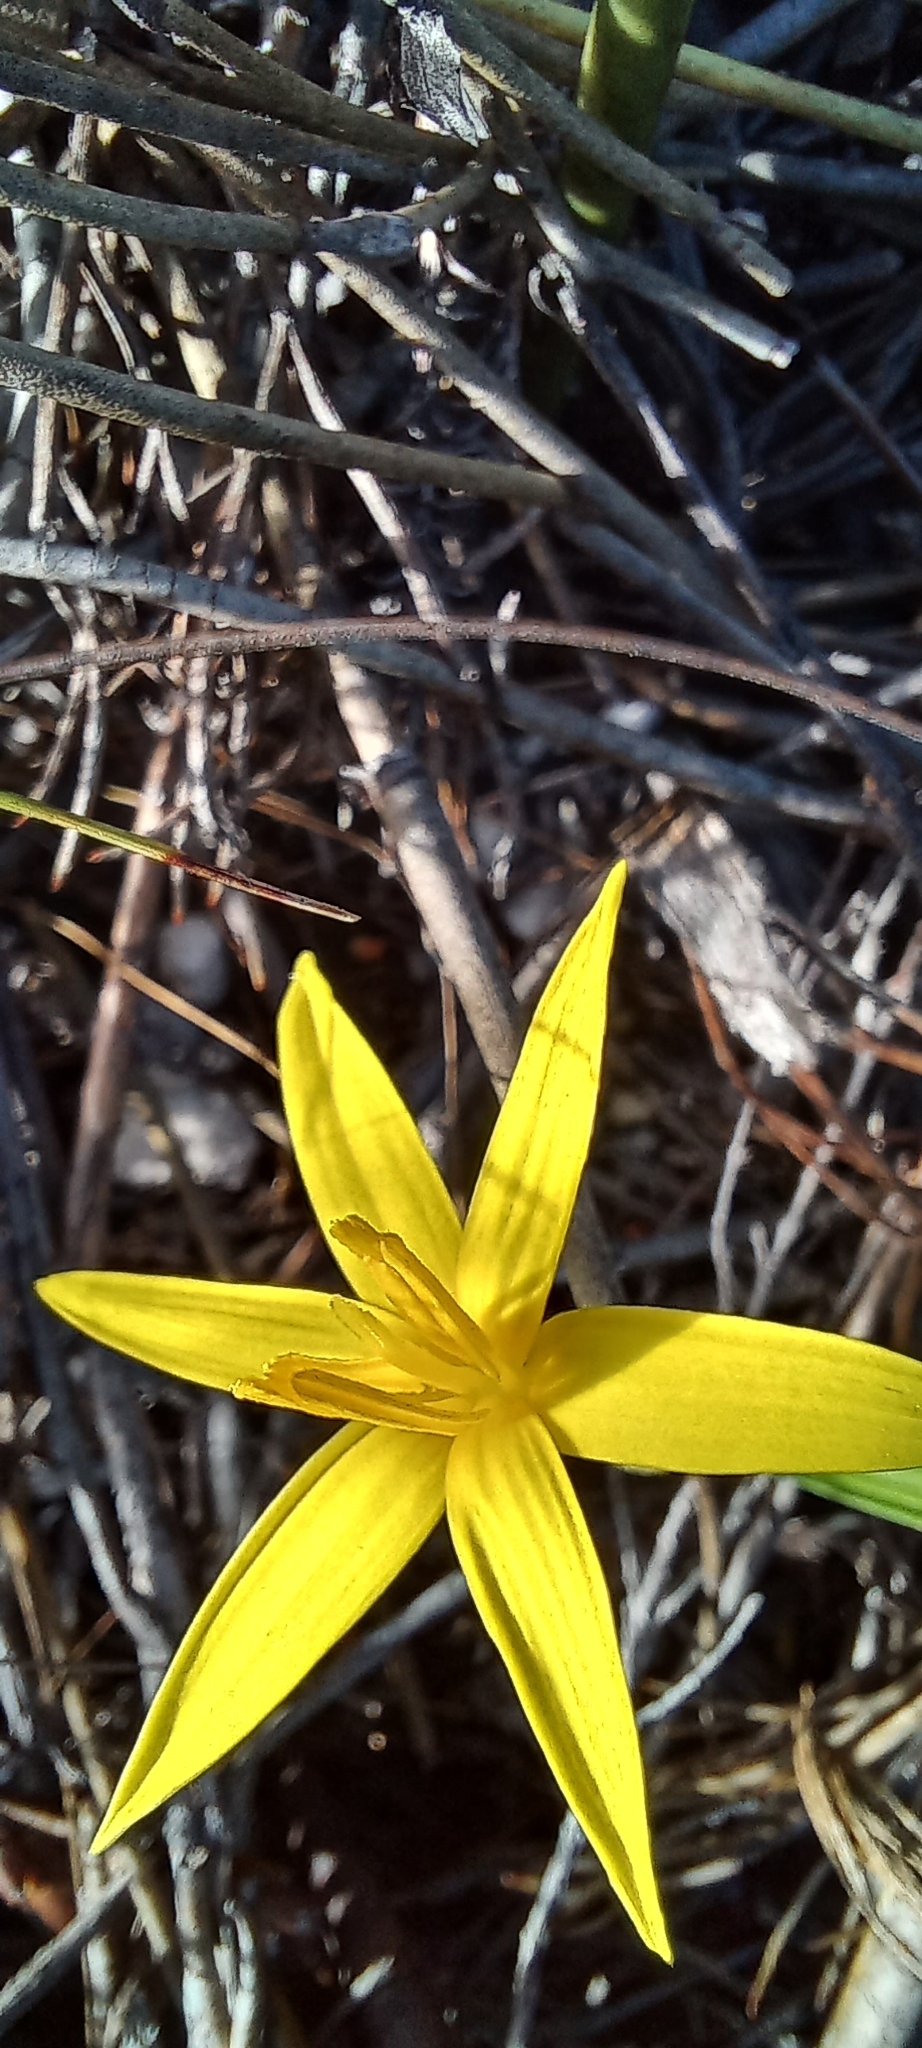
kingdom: Plantae
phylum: Tracheophyta
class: Liliopsida
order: Asparagales
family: Hypoxidaceae
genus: Empodium
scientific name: Empodium plicatum
